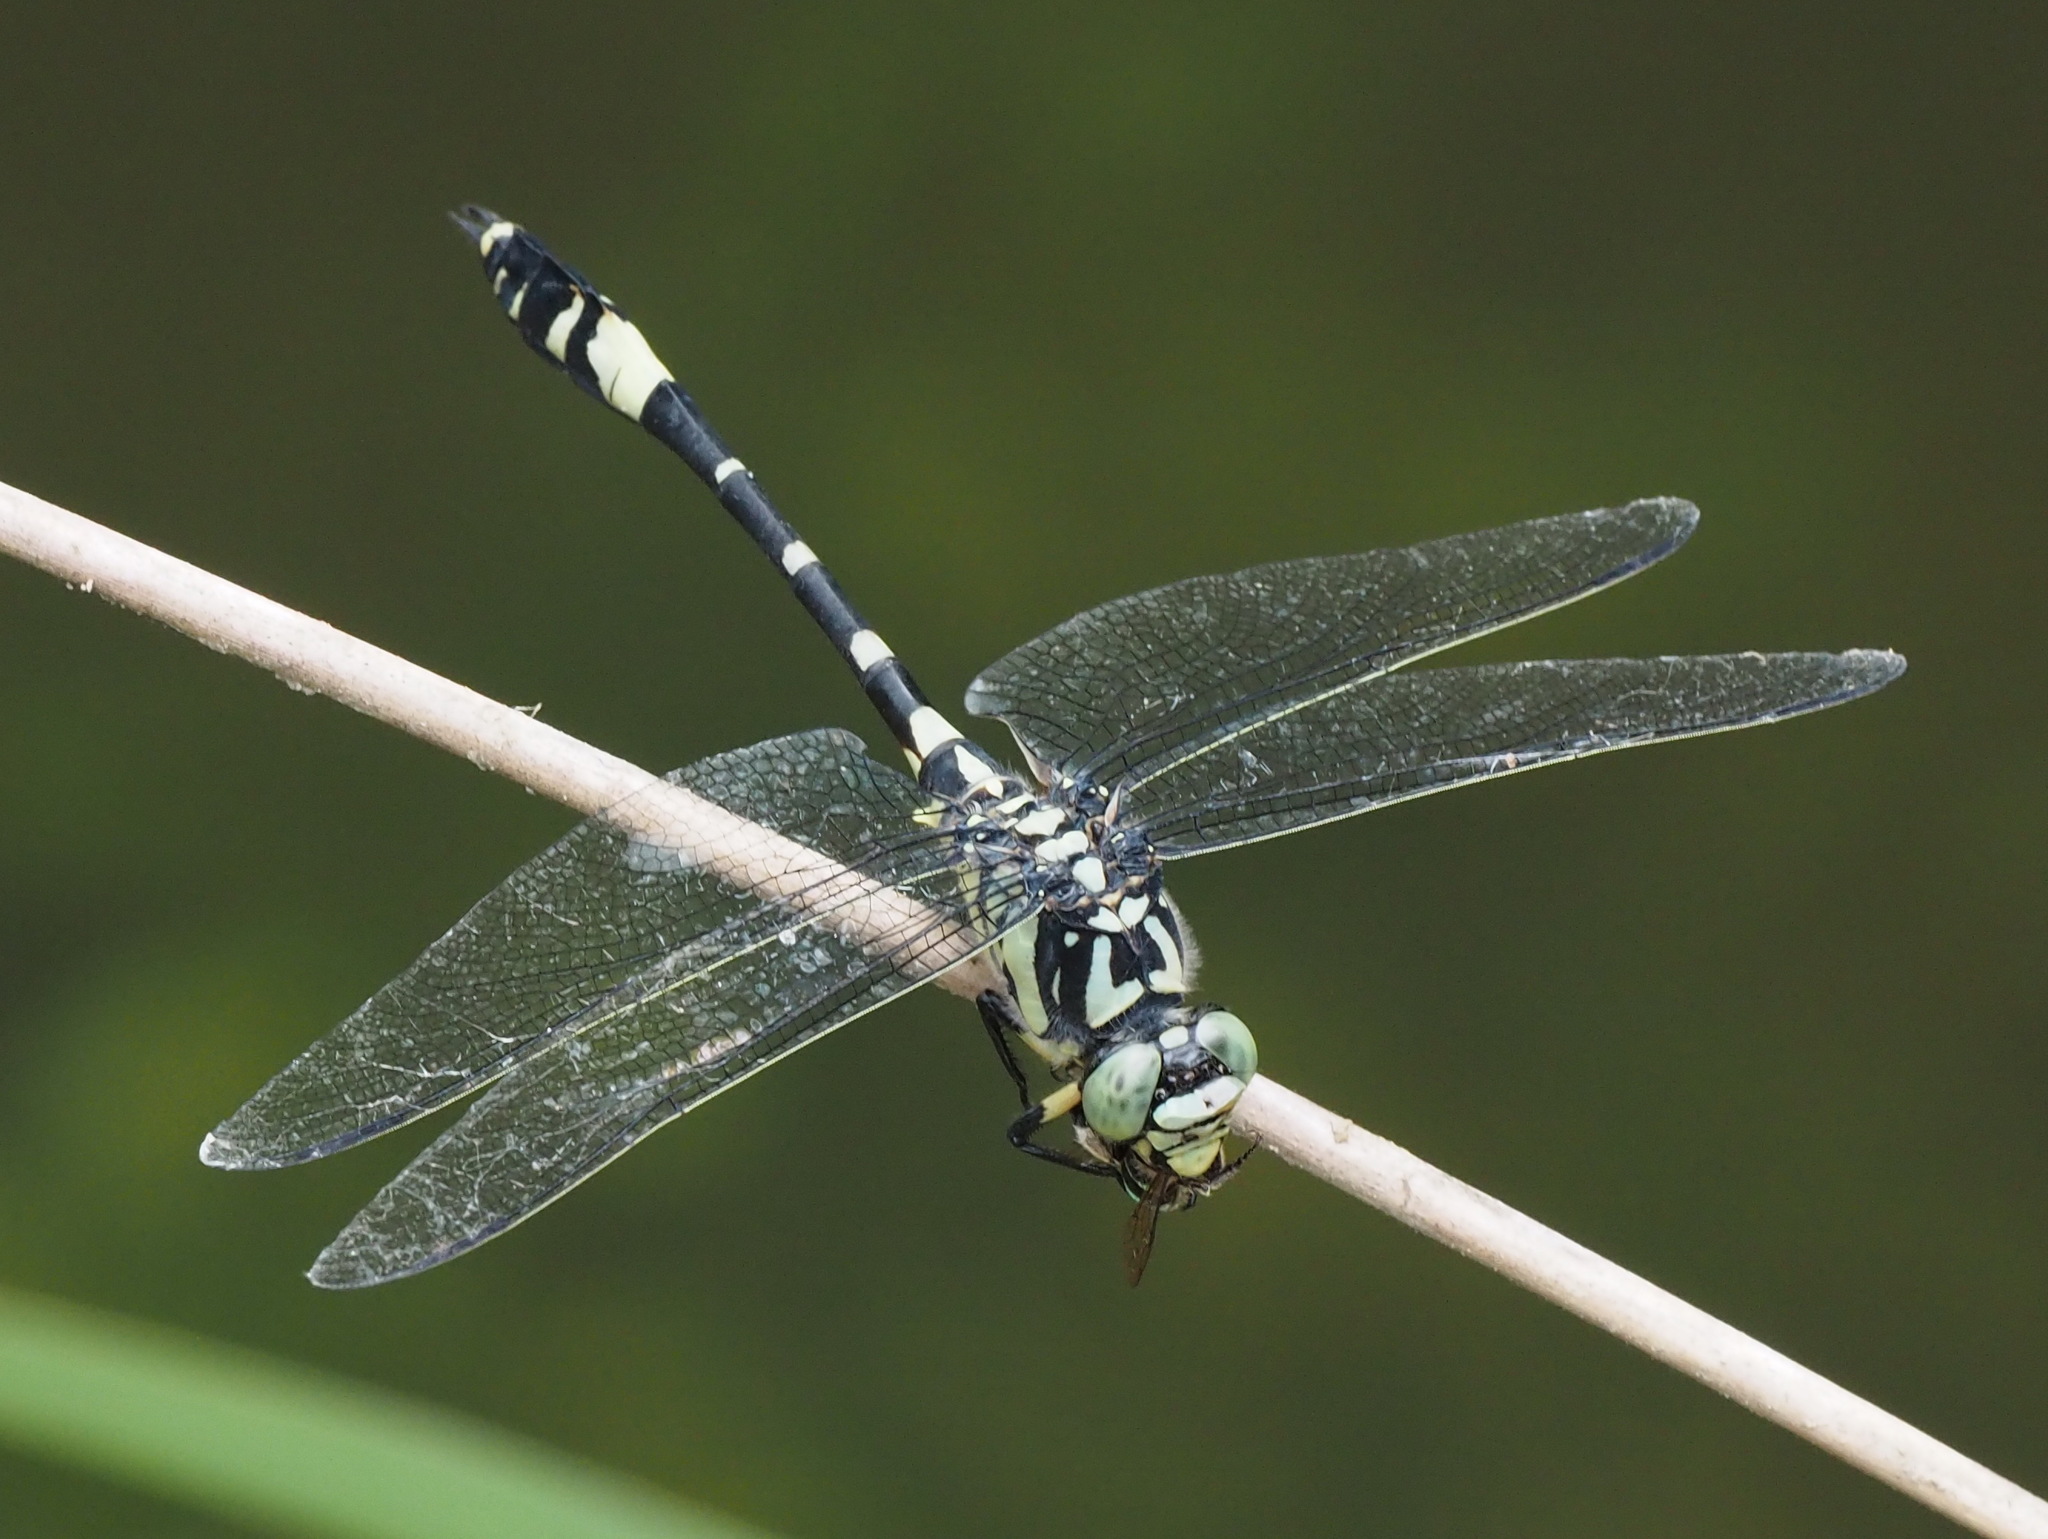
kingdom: Animalia
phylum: Arthropoda
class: Insecta
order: Odonata
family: Gomphidae
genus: Gomphidia
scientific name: Gomphidia confluens
